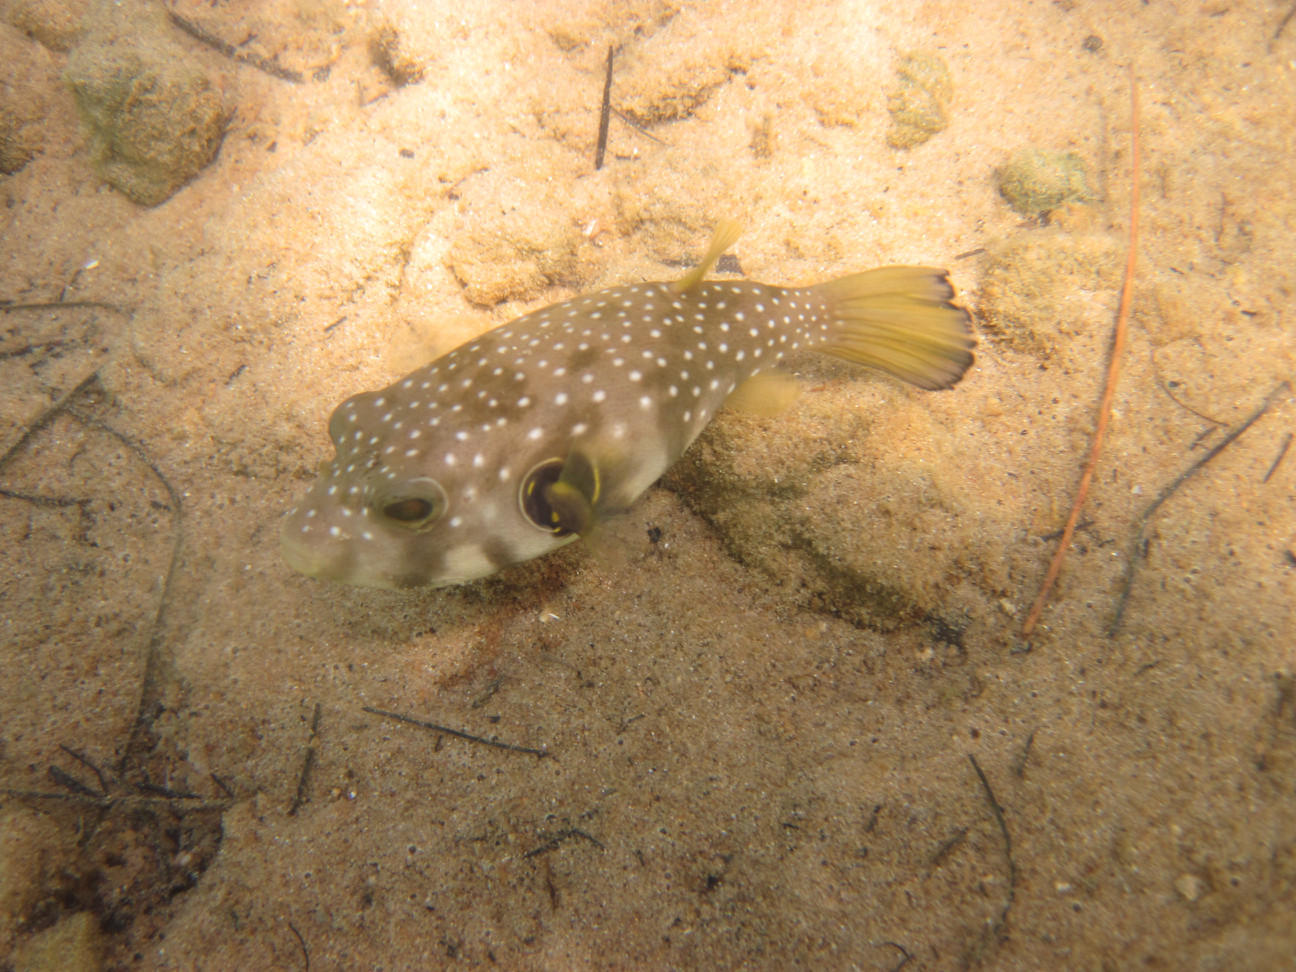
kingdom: Animalia
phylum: Chordata
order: Tetraodontiformes
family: Tetraodontidae
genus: Arothron
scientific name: Arothron hispidus
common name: Stripebelly puffer
